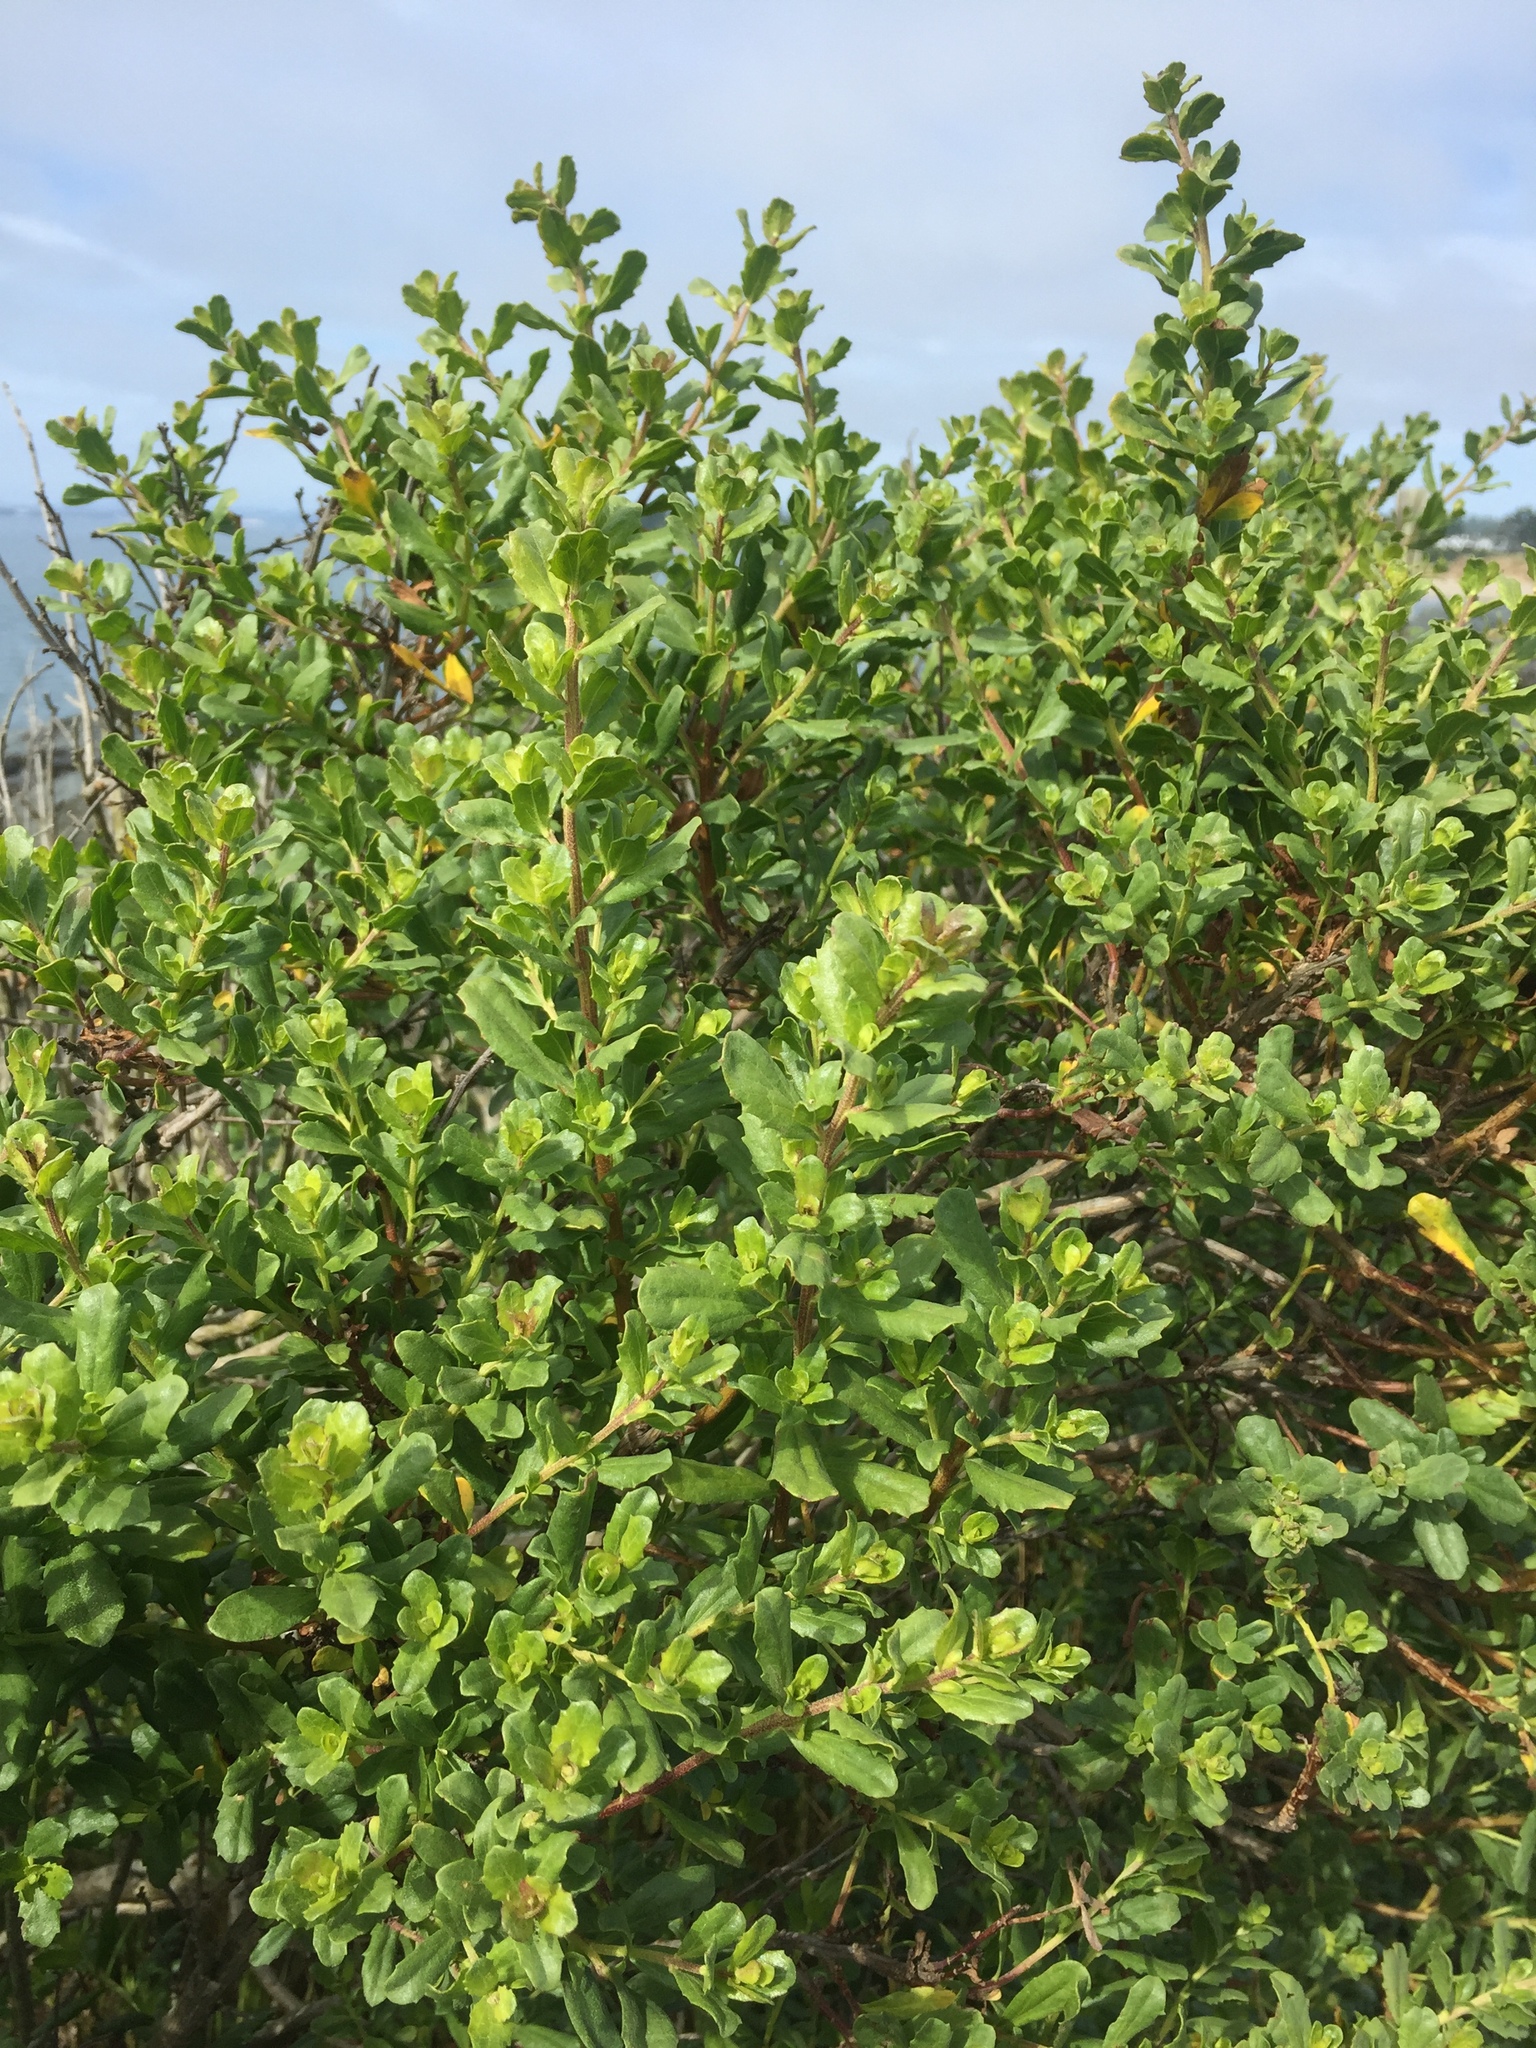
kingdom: Plantae
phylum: Tracheophyta
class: Magnoliopsida
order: Asterales
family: Asteraceae
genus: Baccharis
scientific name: Baccharis pilularis
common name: Coyotebrush
